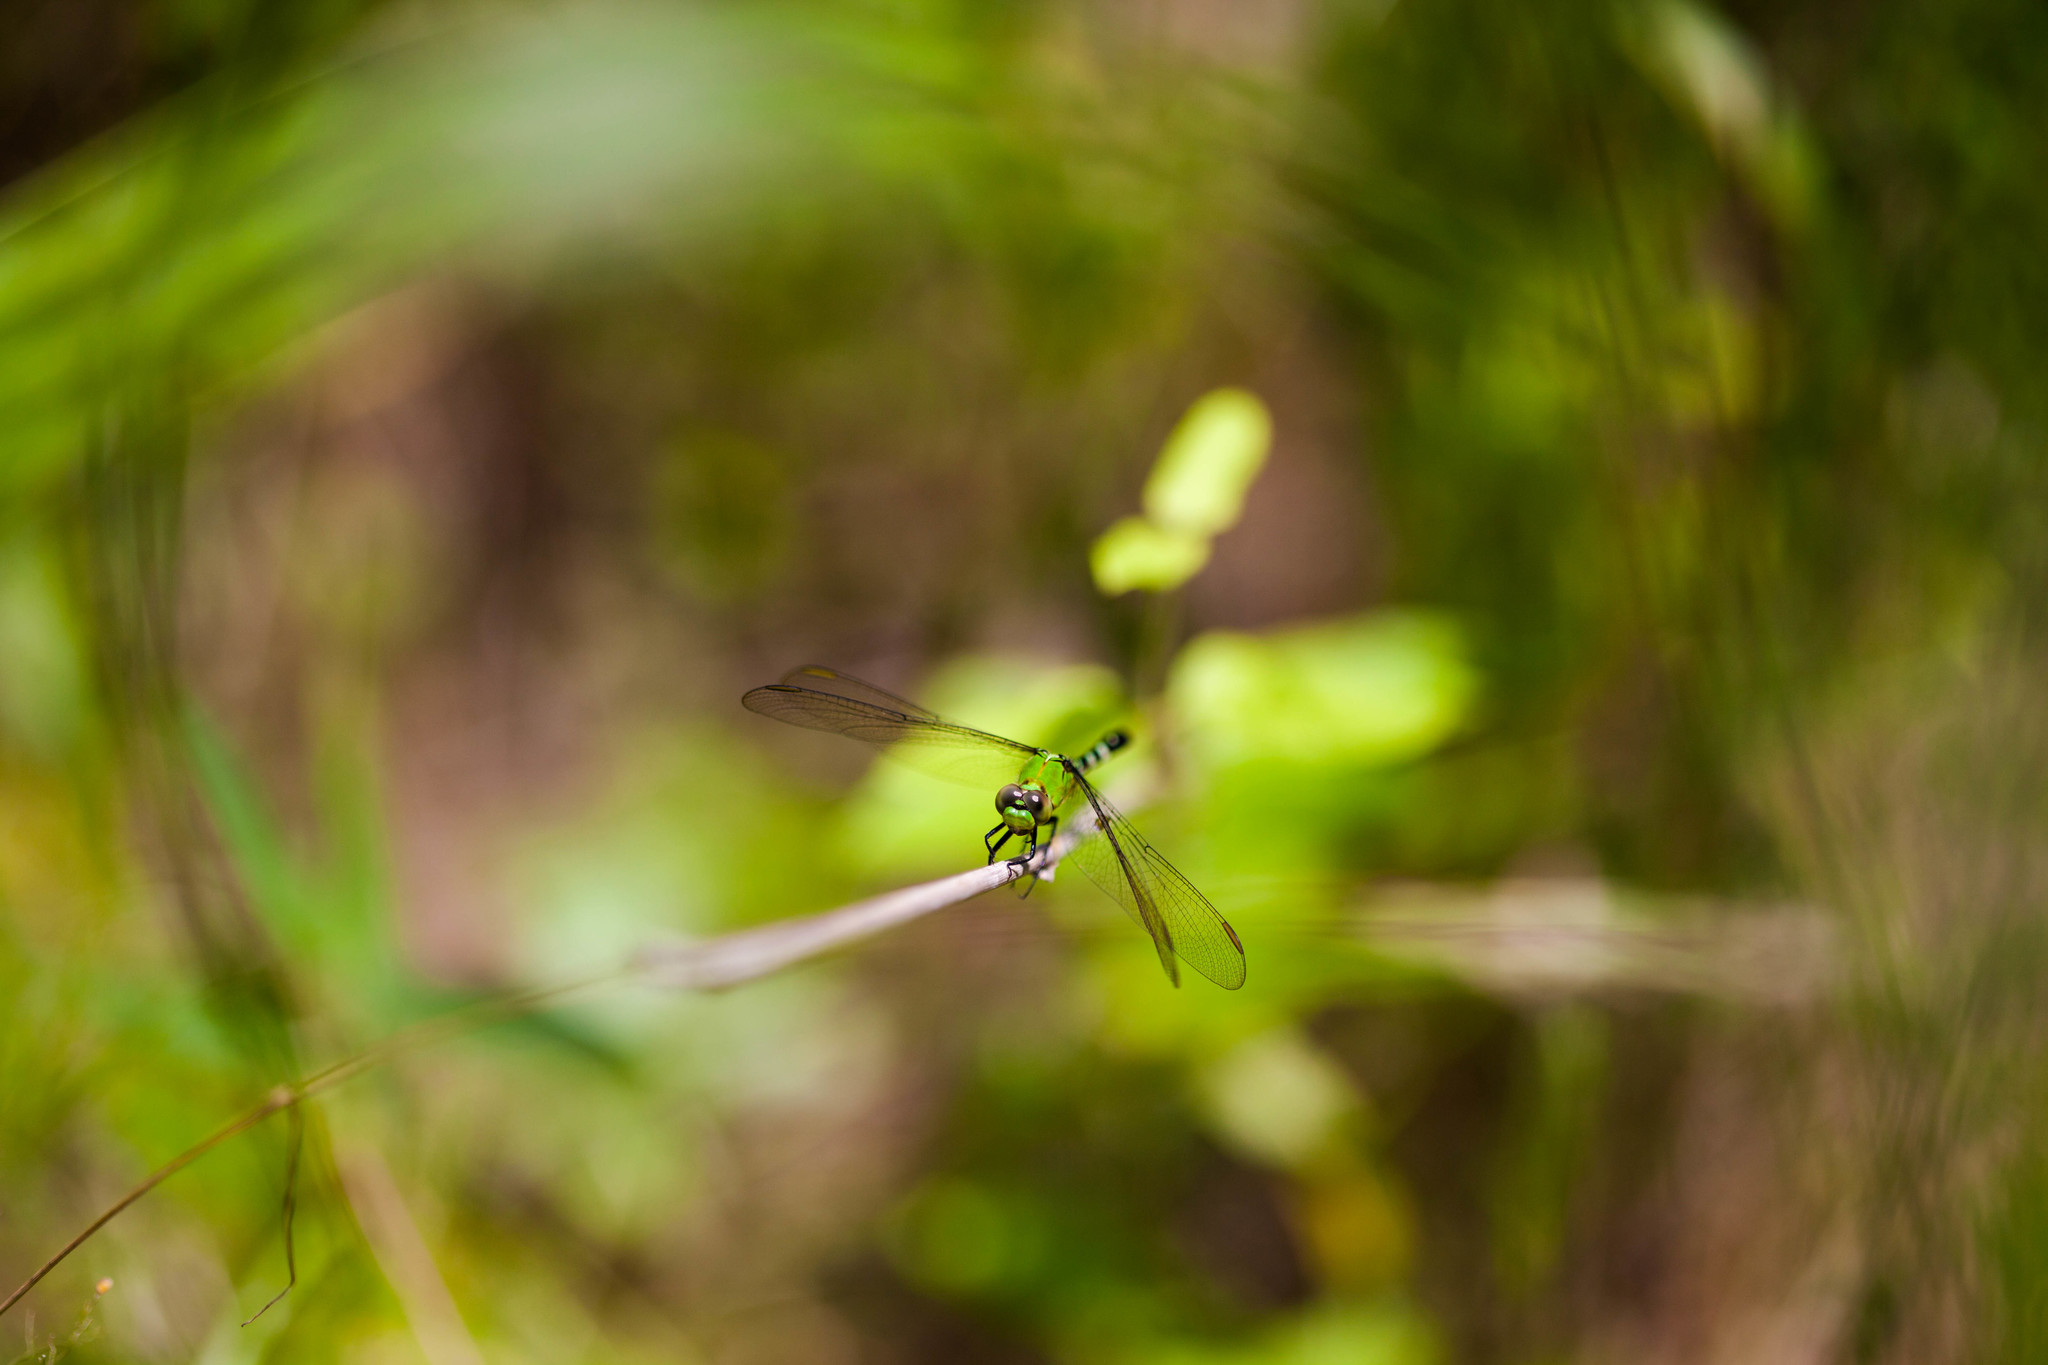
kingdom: Animalia
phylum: Arthropoda
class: Insecta
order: Odonata
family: Libellulidae
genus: Erythemis
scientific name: Erythemis simplicicollis
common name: Eastern pondhawk
